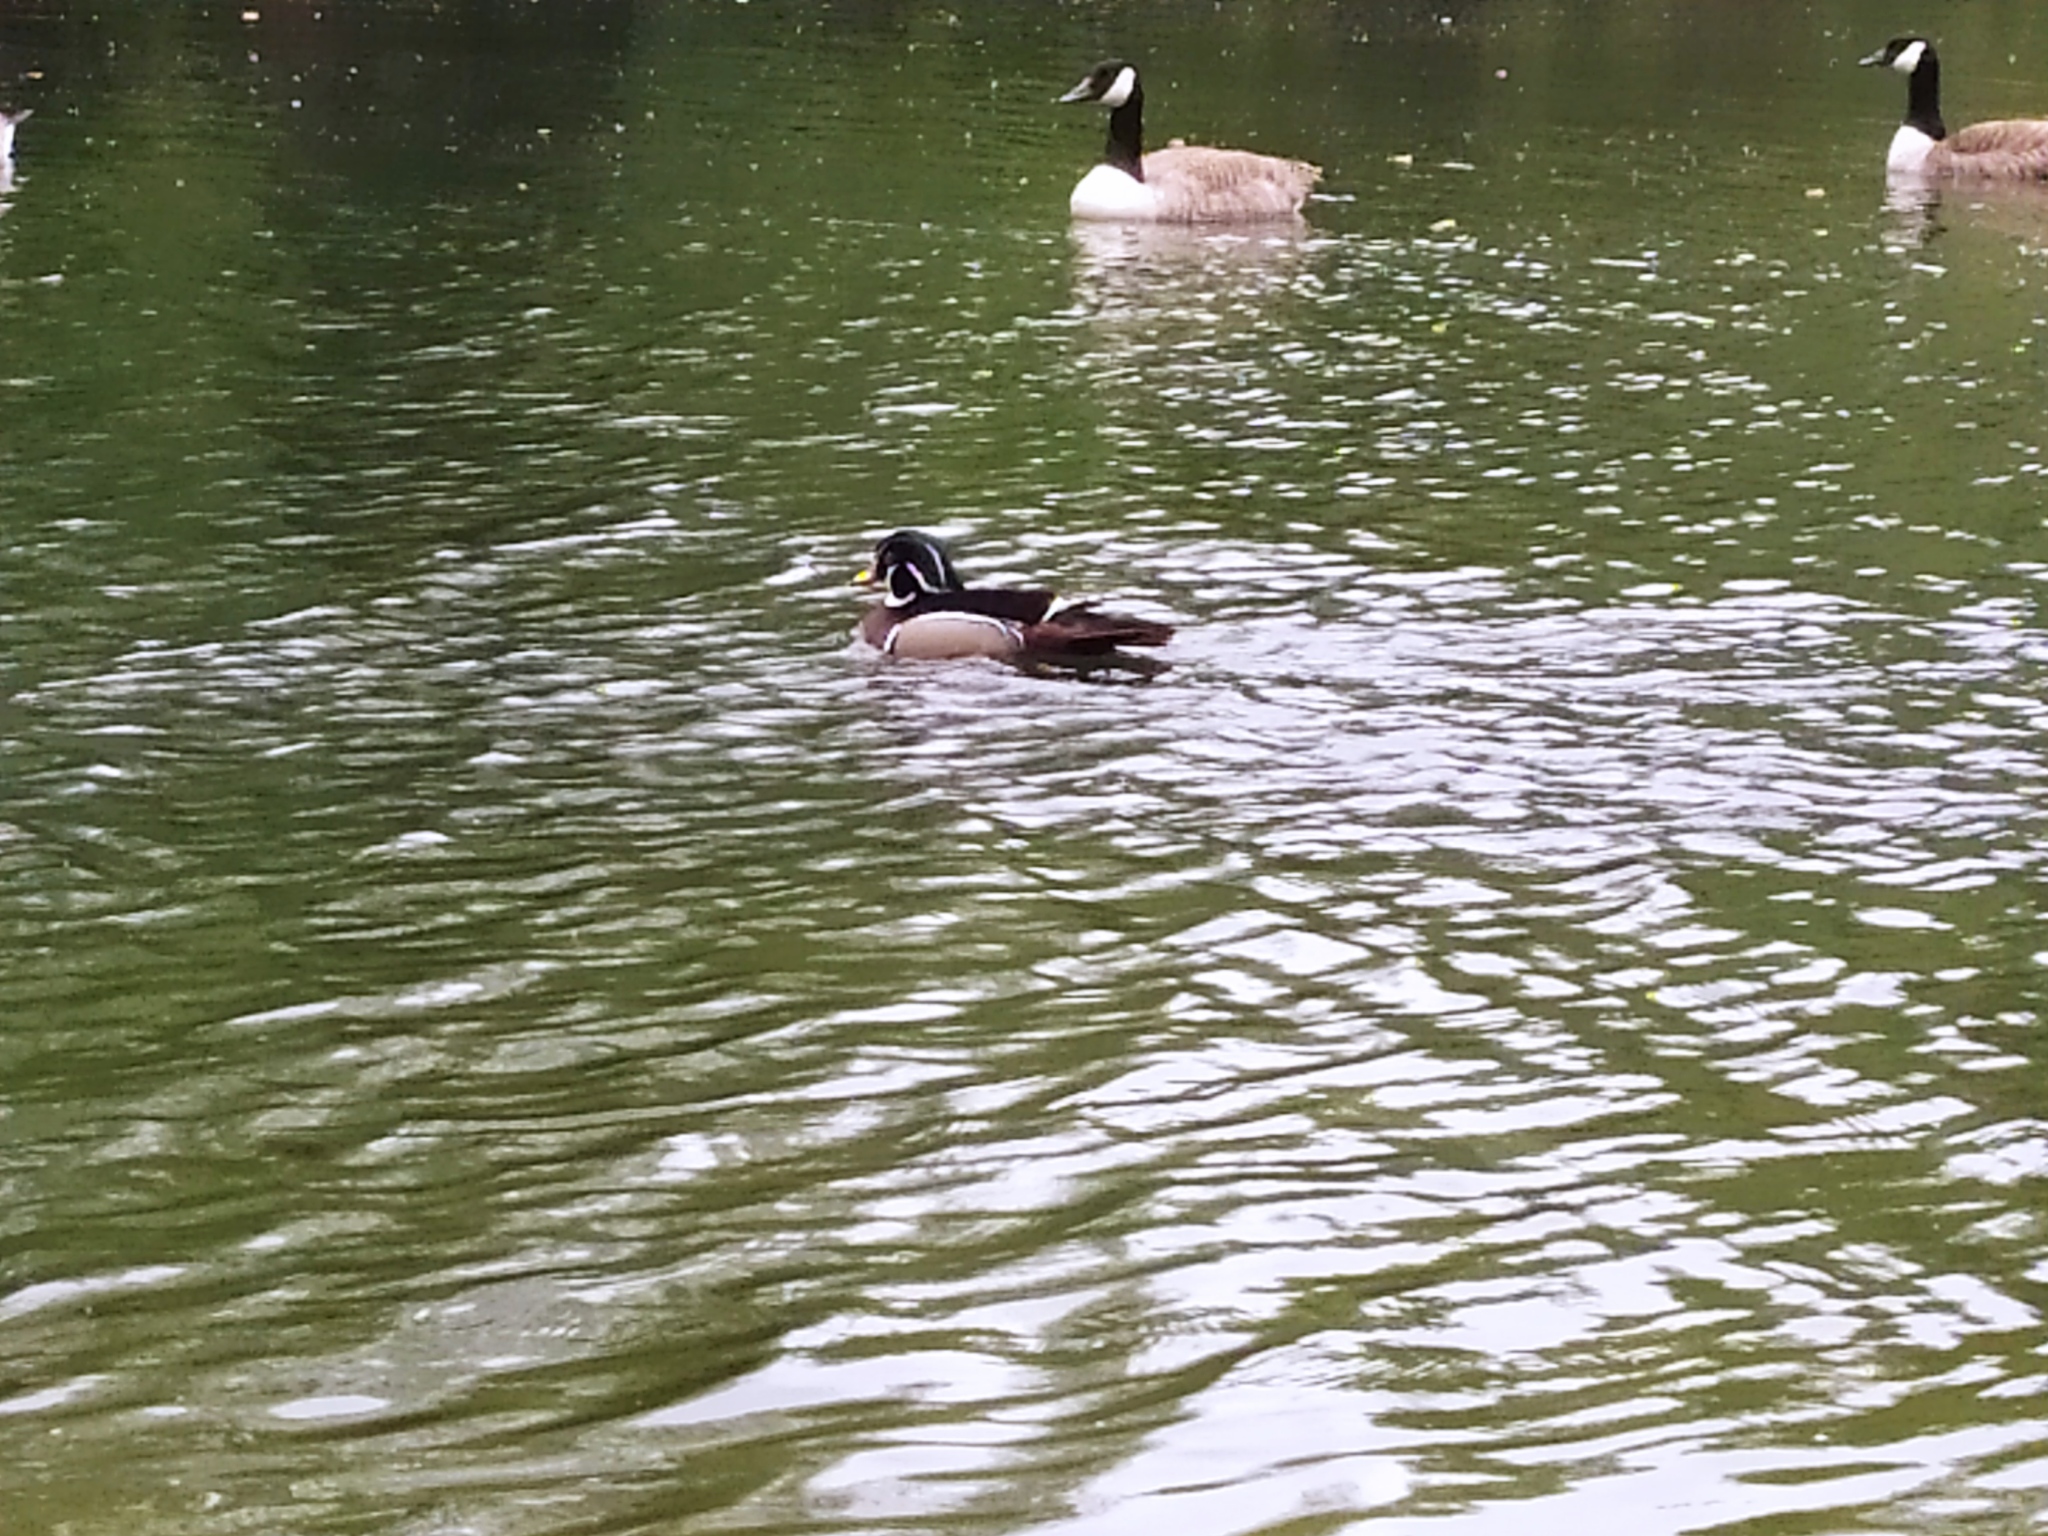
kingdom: Animalia
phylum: Chordata
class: Aves
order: Anseriformes
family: Anatidae
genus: Aix
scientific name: Aix sponsa
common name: Wood duck
